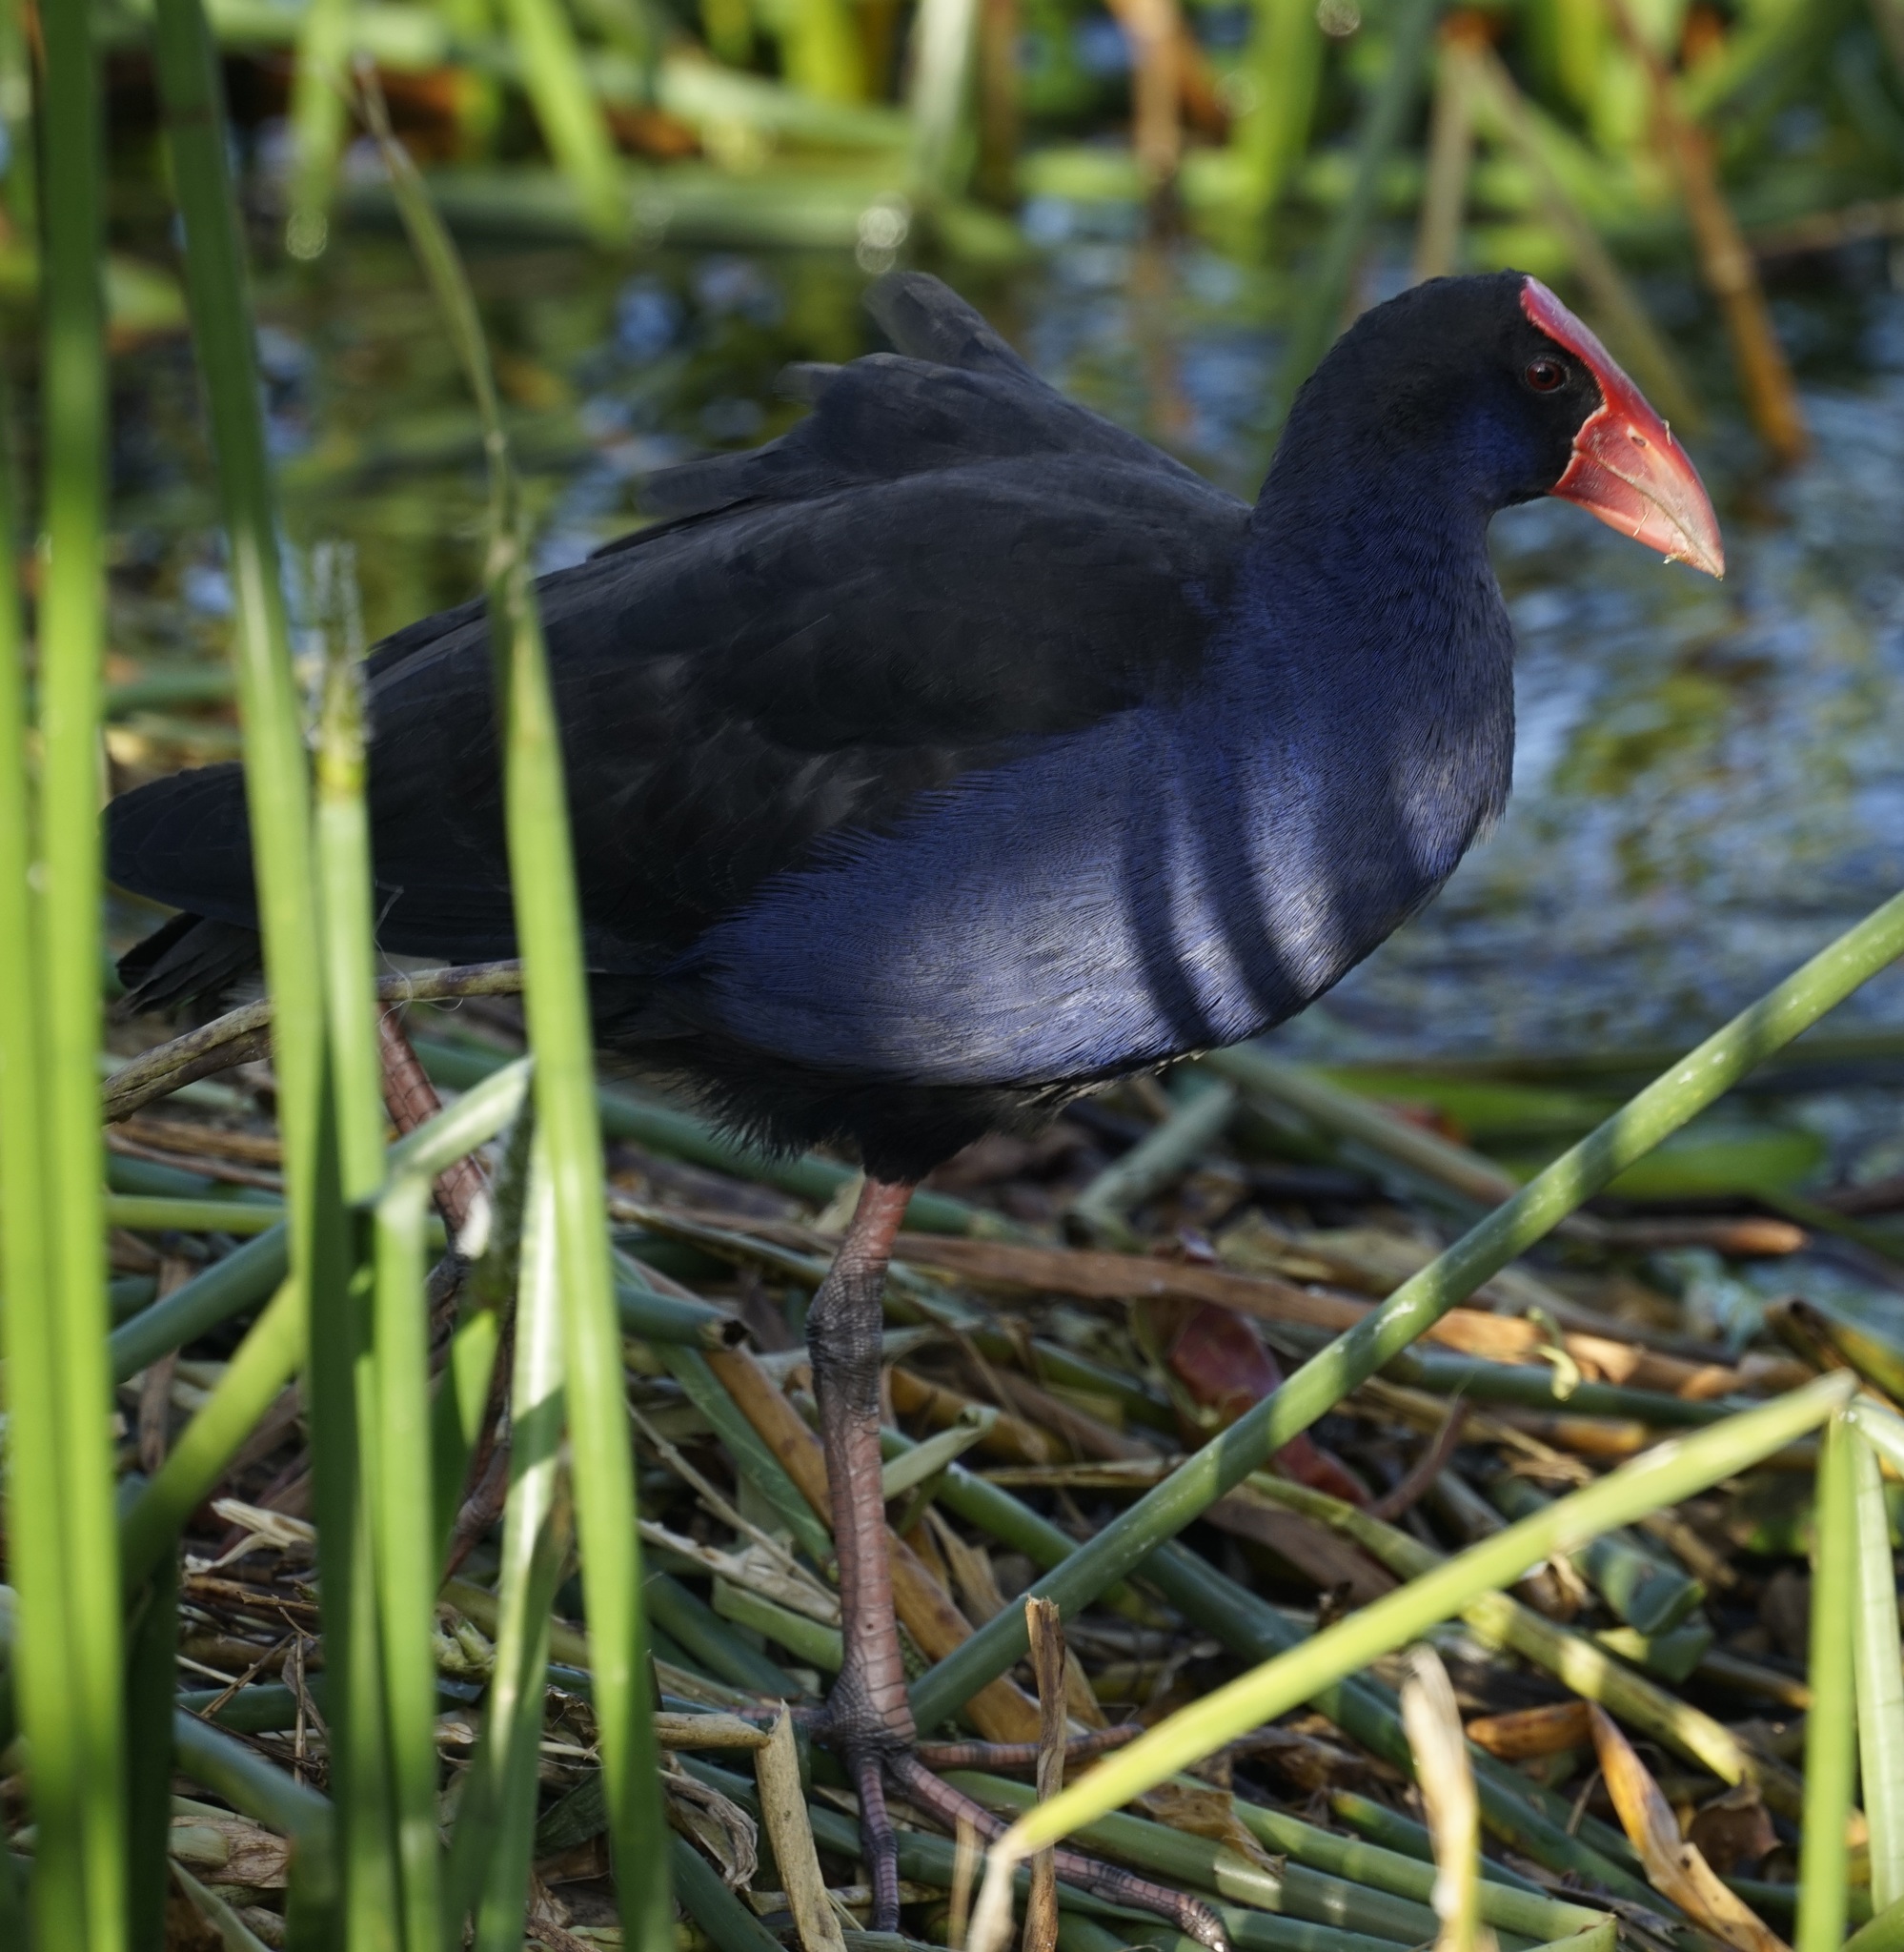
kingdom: Animalia
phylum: Chordata
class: Aves
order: Gruiformes
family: Rallidae
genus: Porphyrio
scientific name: Porphyrio melanotus
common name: Australasian swamphen
